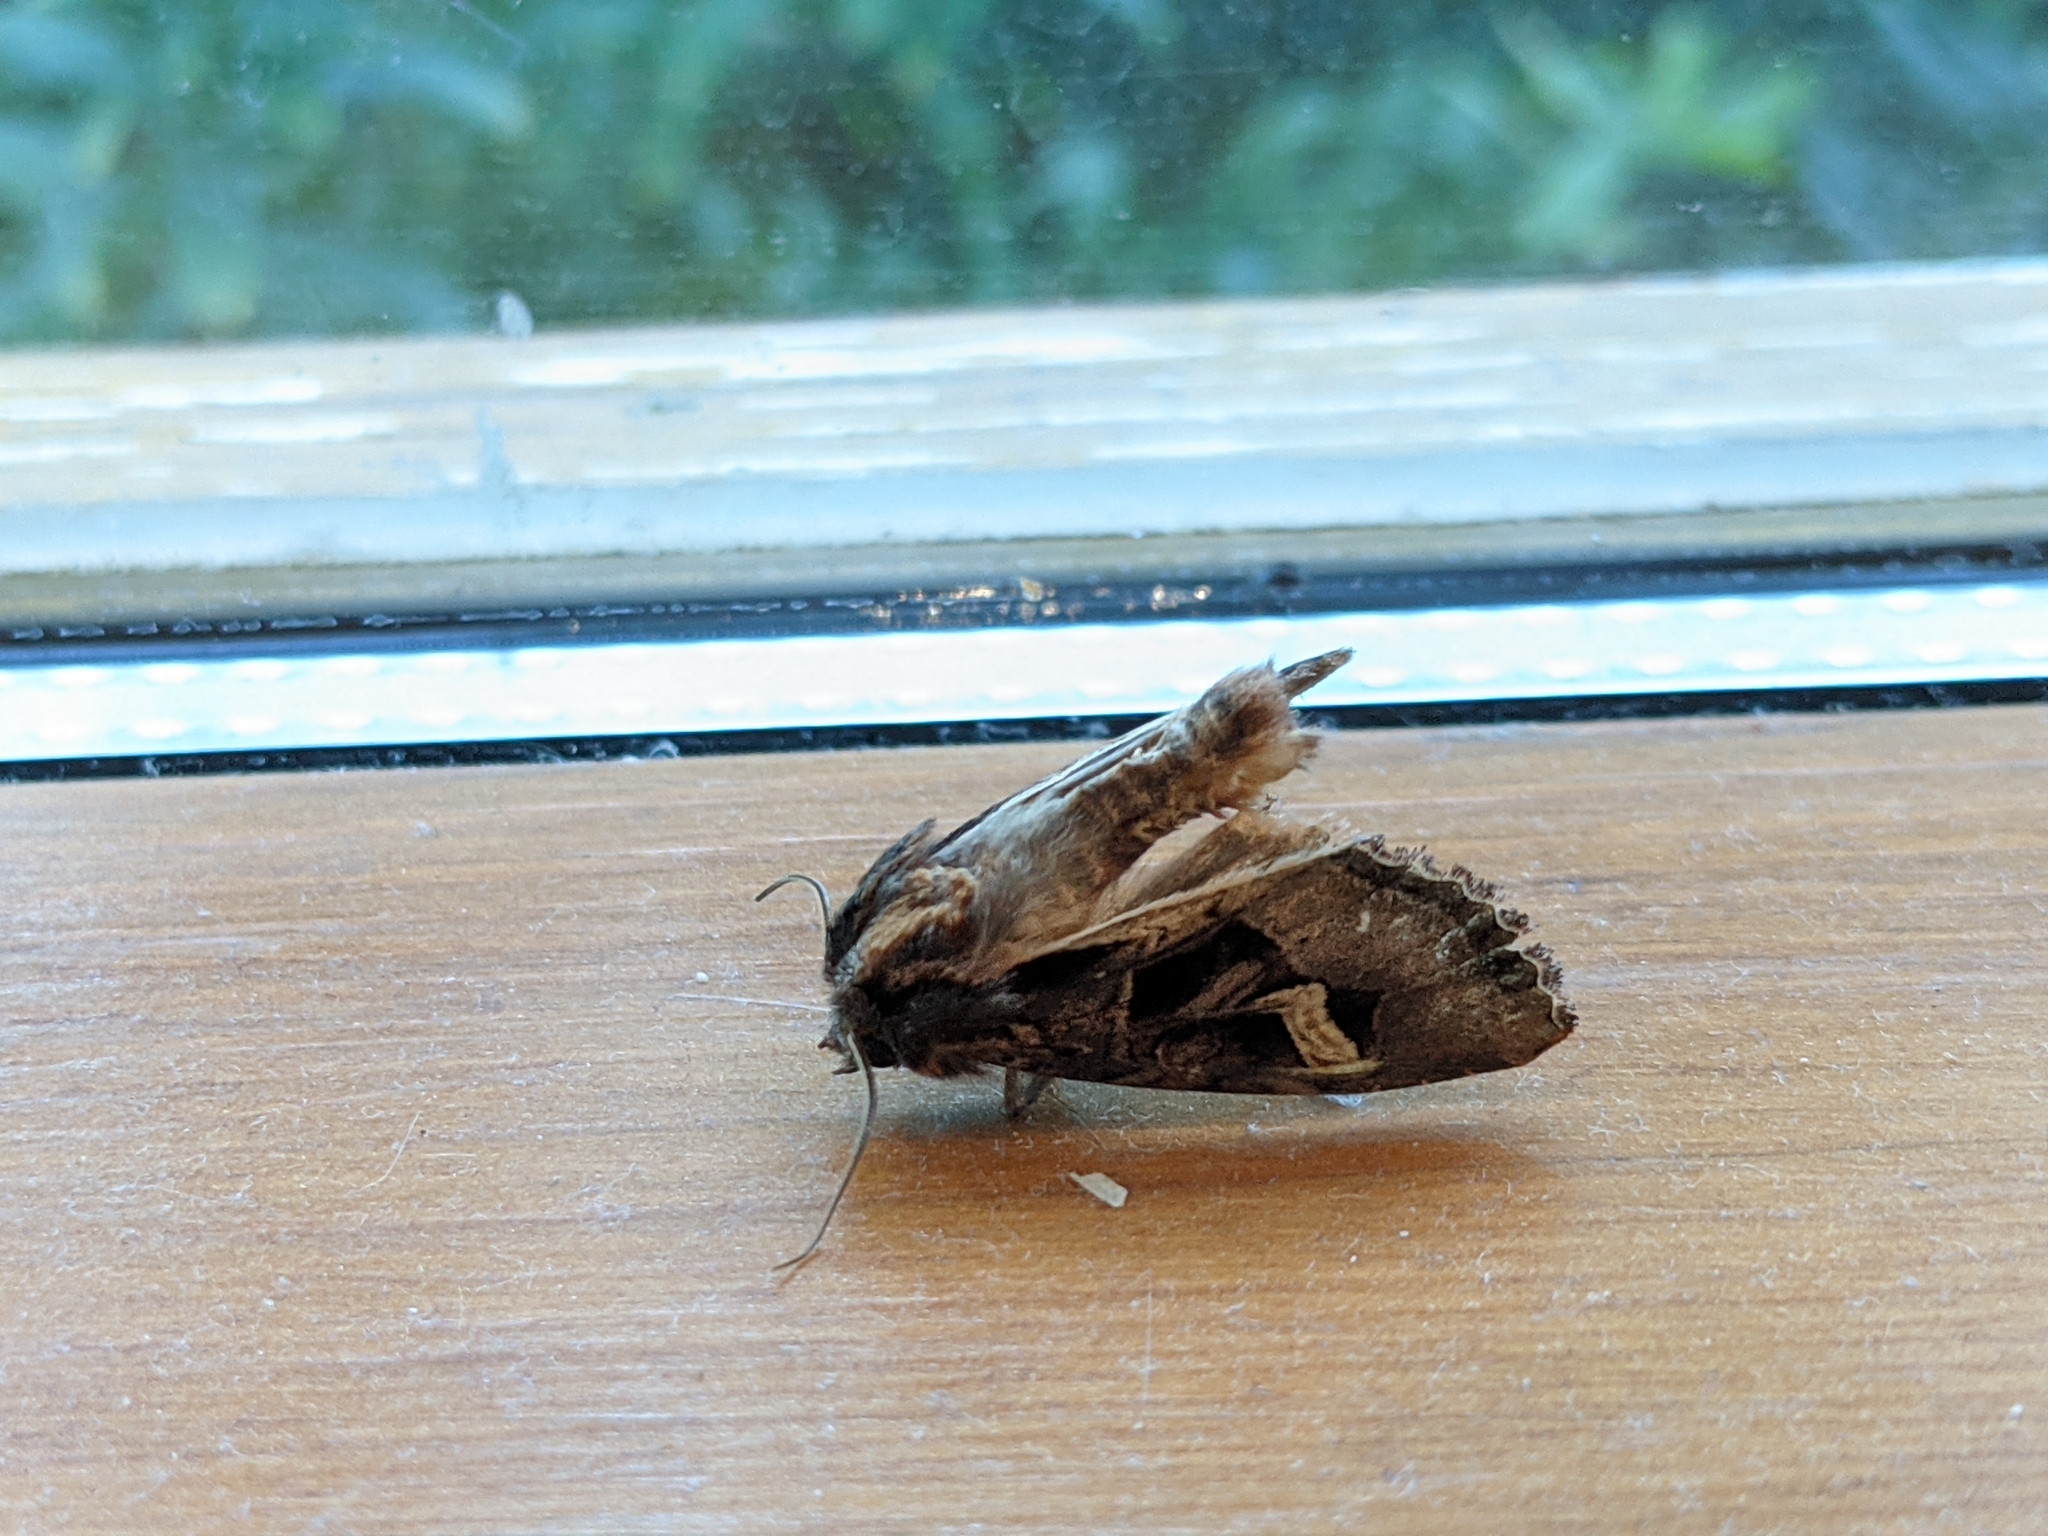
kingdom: Animalia
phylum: Arthropoda
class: Insecta
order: Lepidoptera
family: Noctuidae
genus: Trigonophora
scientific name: Trigonophora flammea
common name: Flame brocade
